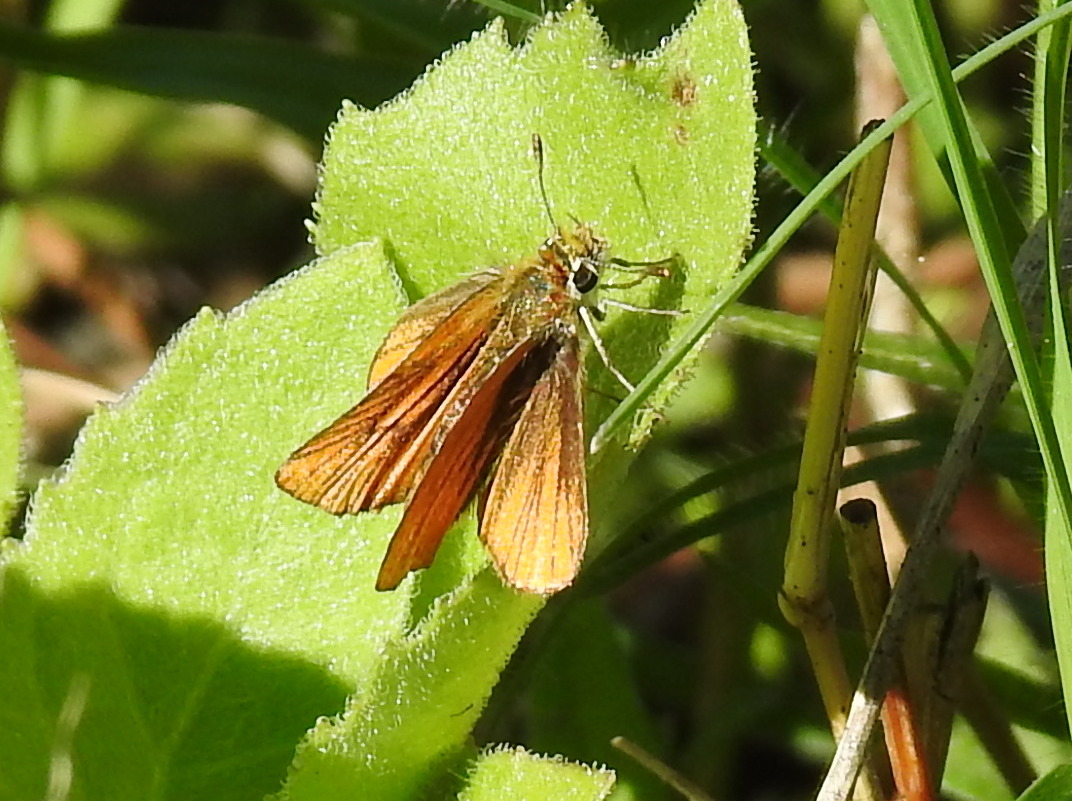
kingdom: Animalia
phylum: Arthropoda
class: Insecta
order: Lepidoptera
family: Hesperiidae
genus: Copaeodes
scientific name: Copaeodes minima
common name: Southern skipperling
